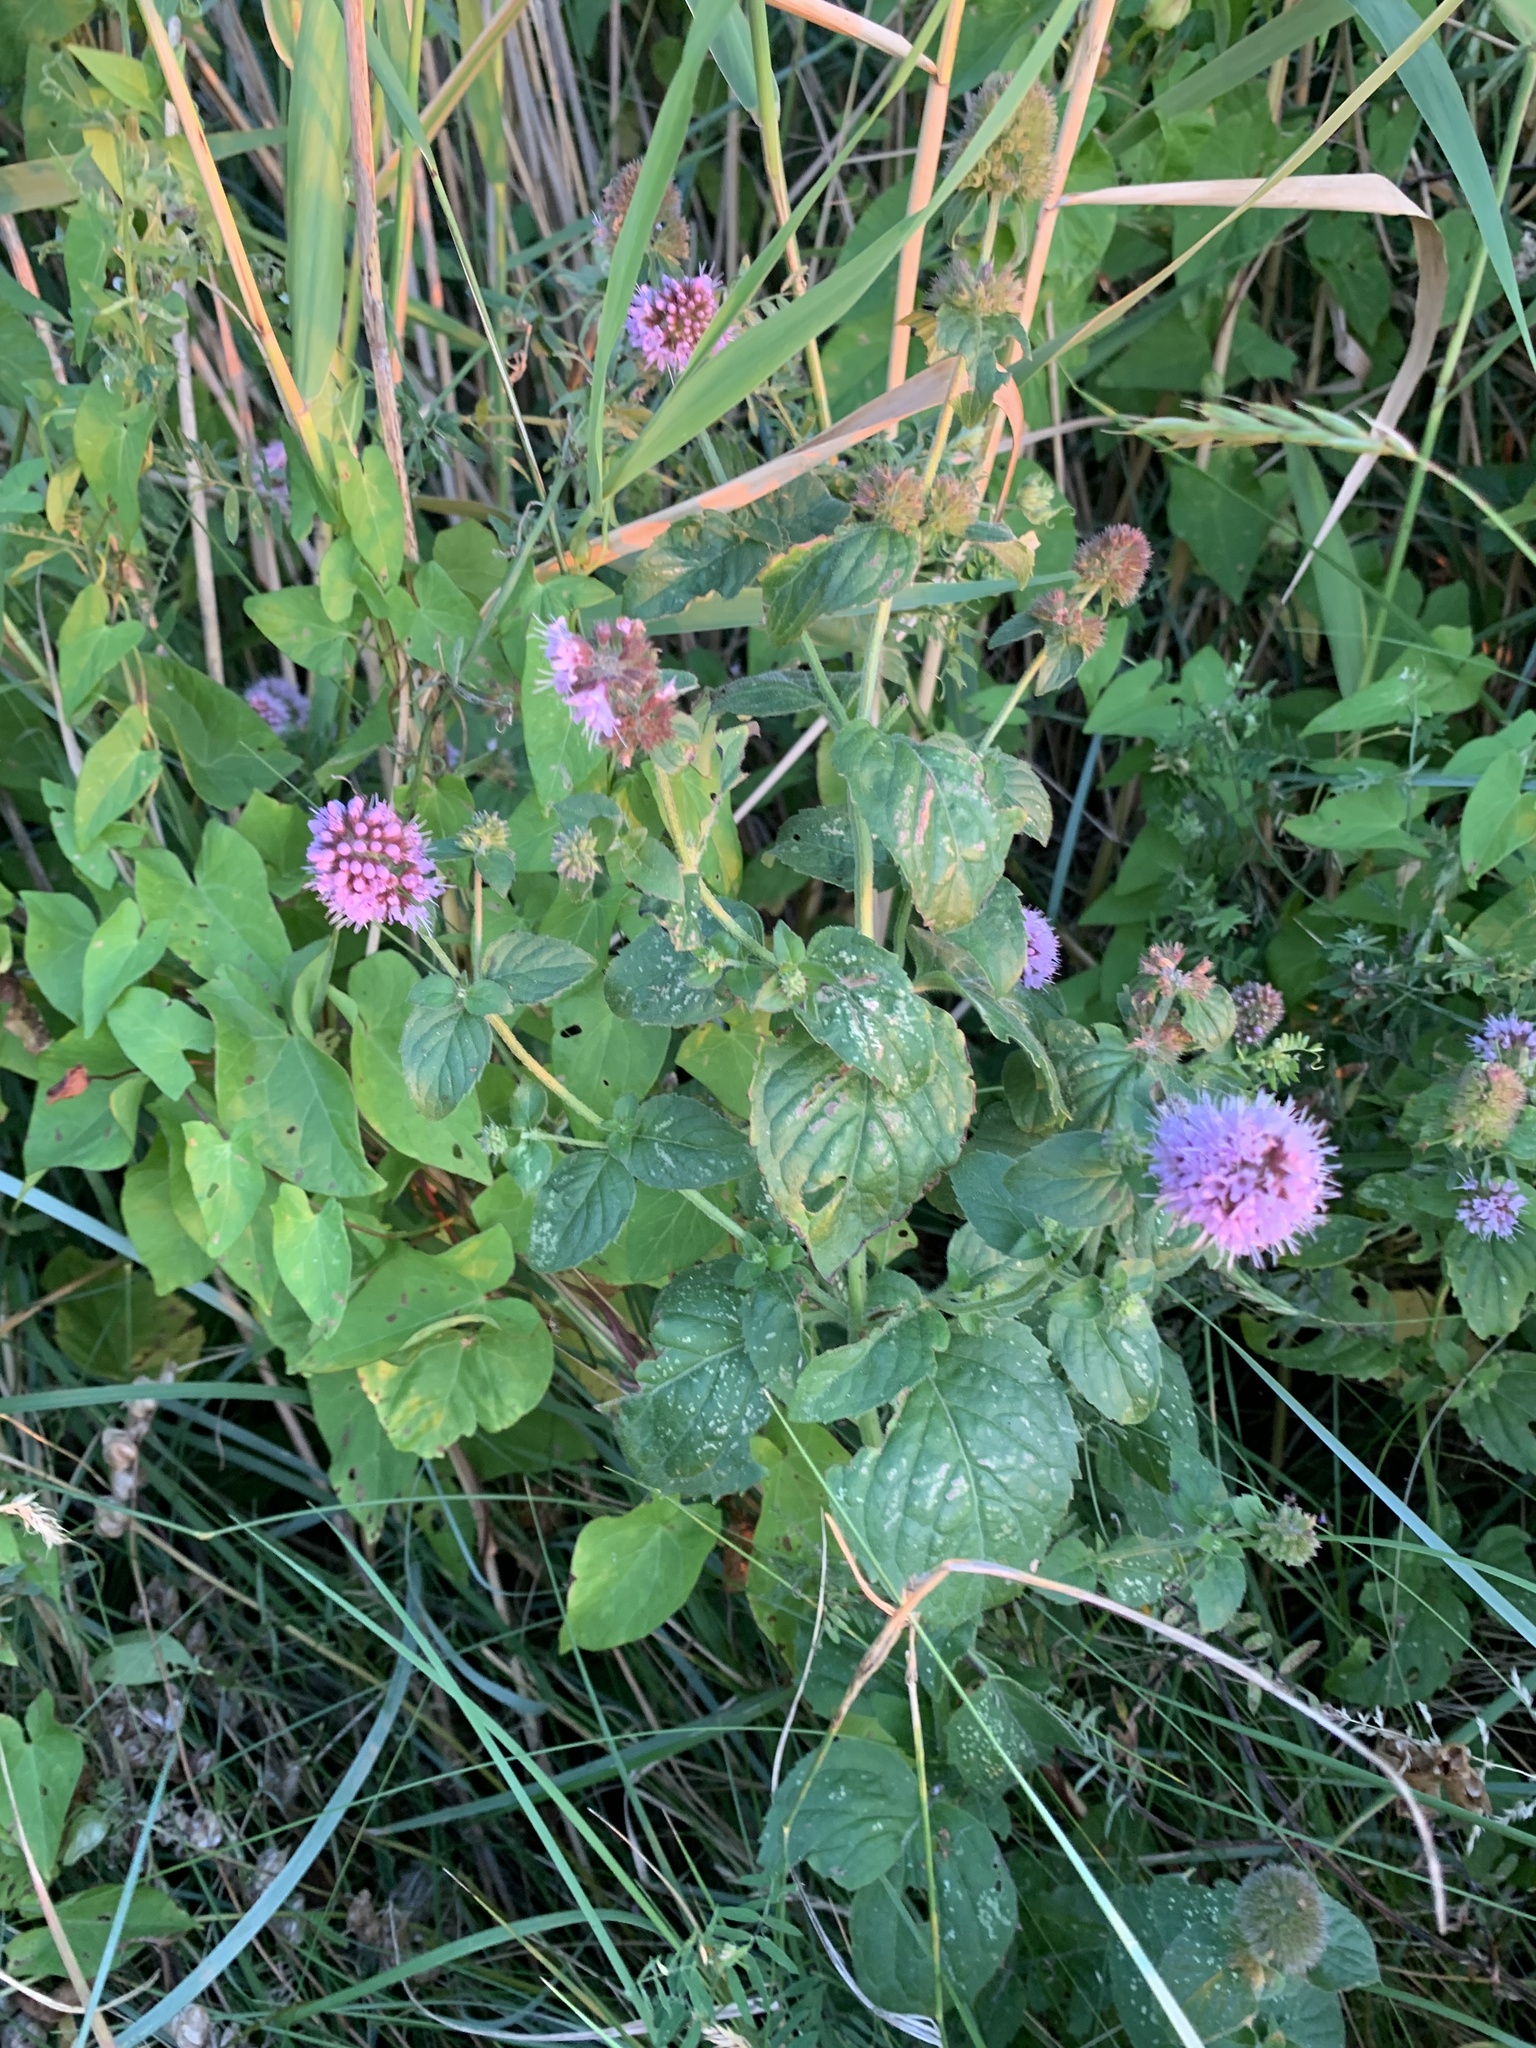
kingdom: Plantae
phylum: Tracheophyta
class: Magnoliopsida
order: Lamiales
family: Lamiaceae
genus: Mentha
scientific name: Mentha aquatica
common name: Water mint
